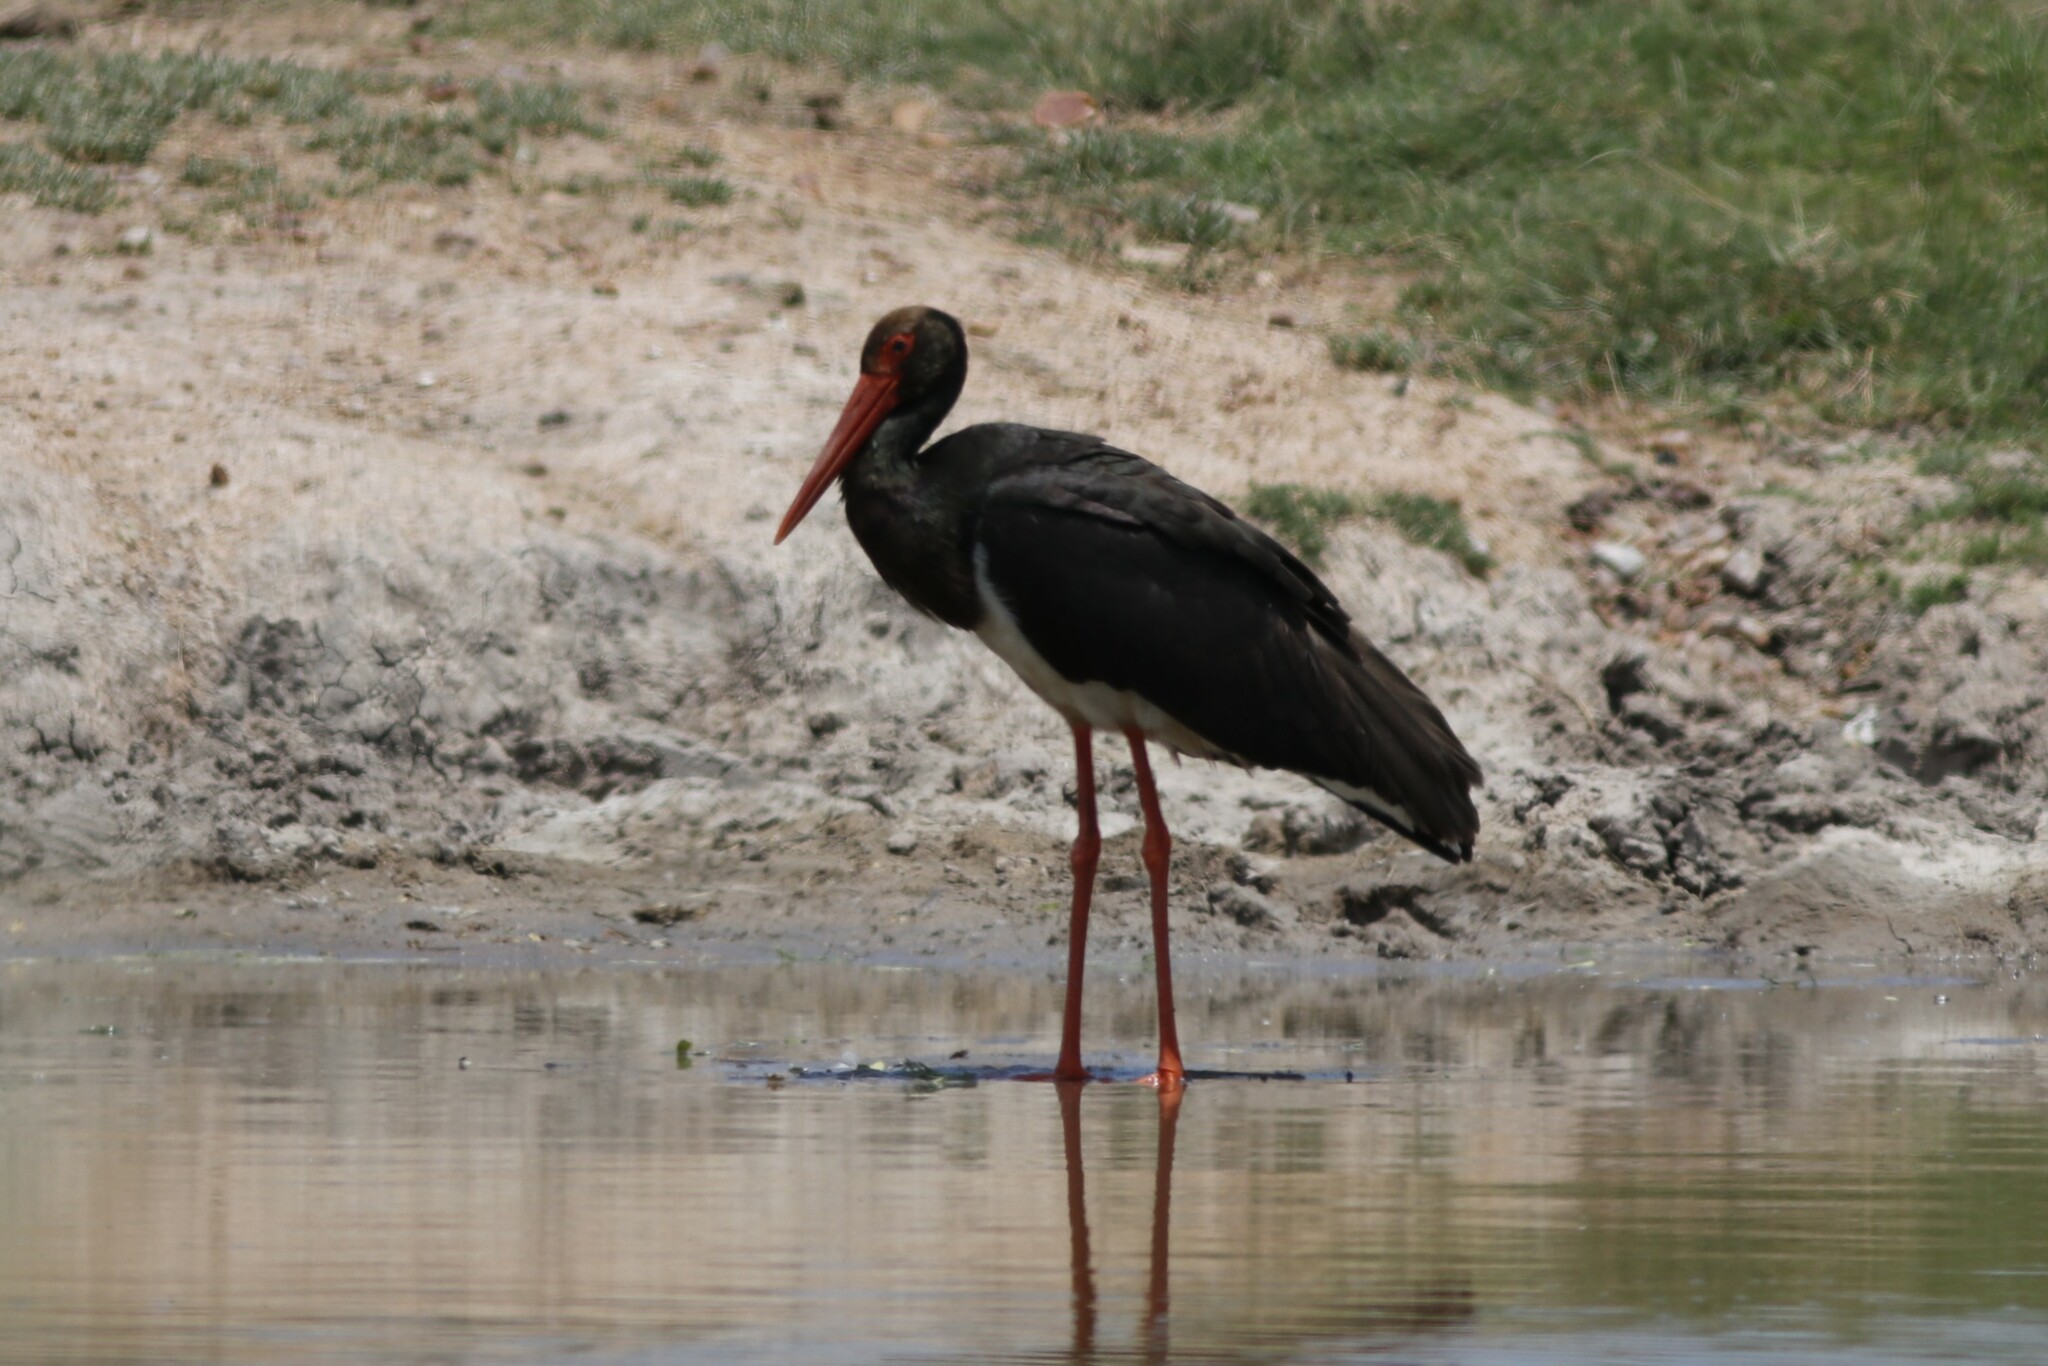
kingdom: Animalia
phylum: Chordata
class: Aves
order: Ciconiiformes
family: Ciconiidae
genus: Ciconia
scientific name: Ciconia nigra
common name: Black stork
